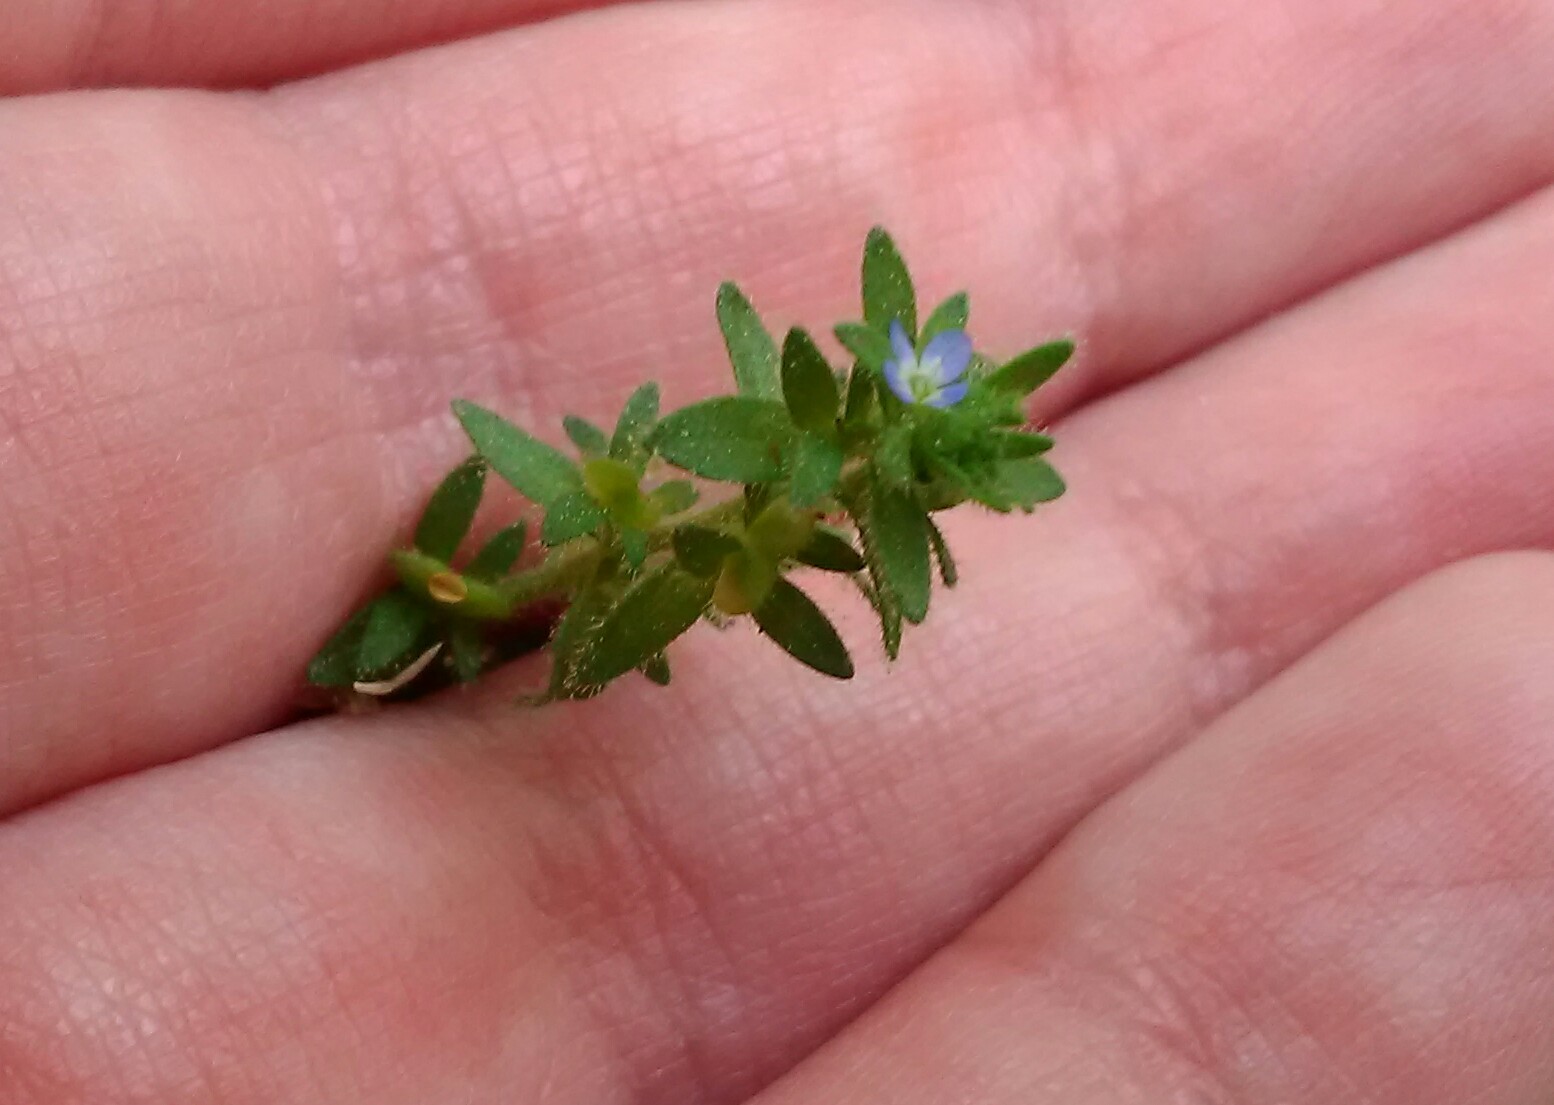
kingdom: Plantae
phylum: Tracheophyta
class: Magnoliopsida
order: Lamiales
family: Plantaginaceae
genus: Veronica
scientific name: Veronica arvensis
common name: Corn speedwell
